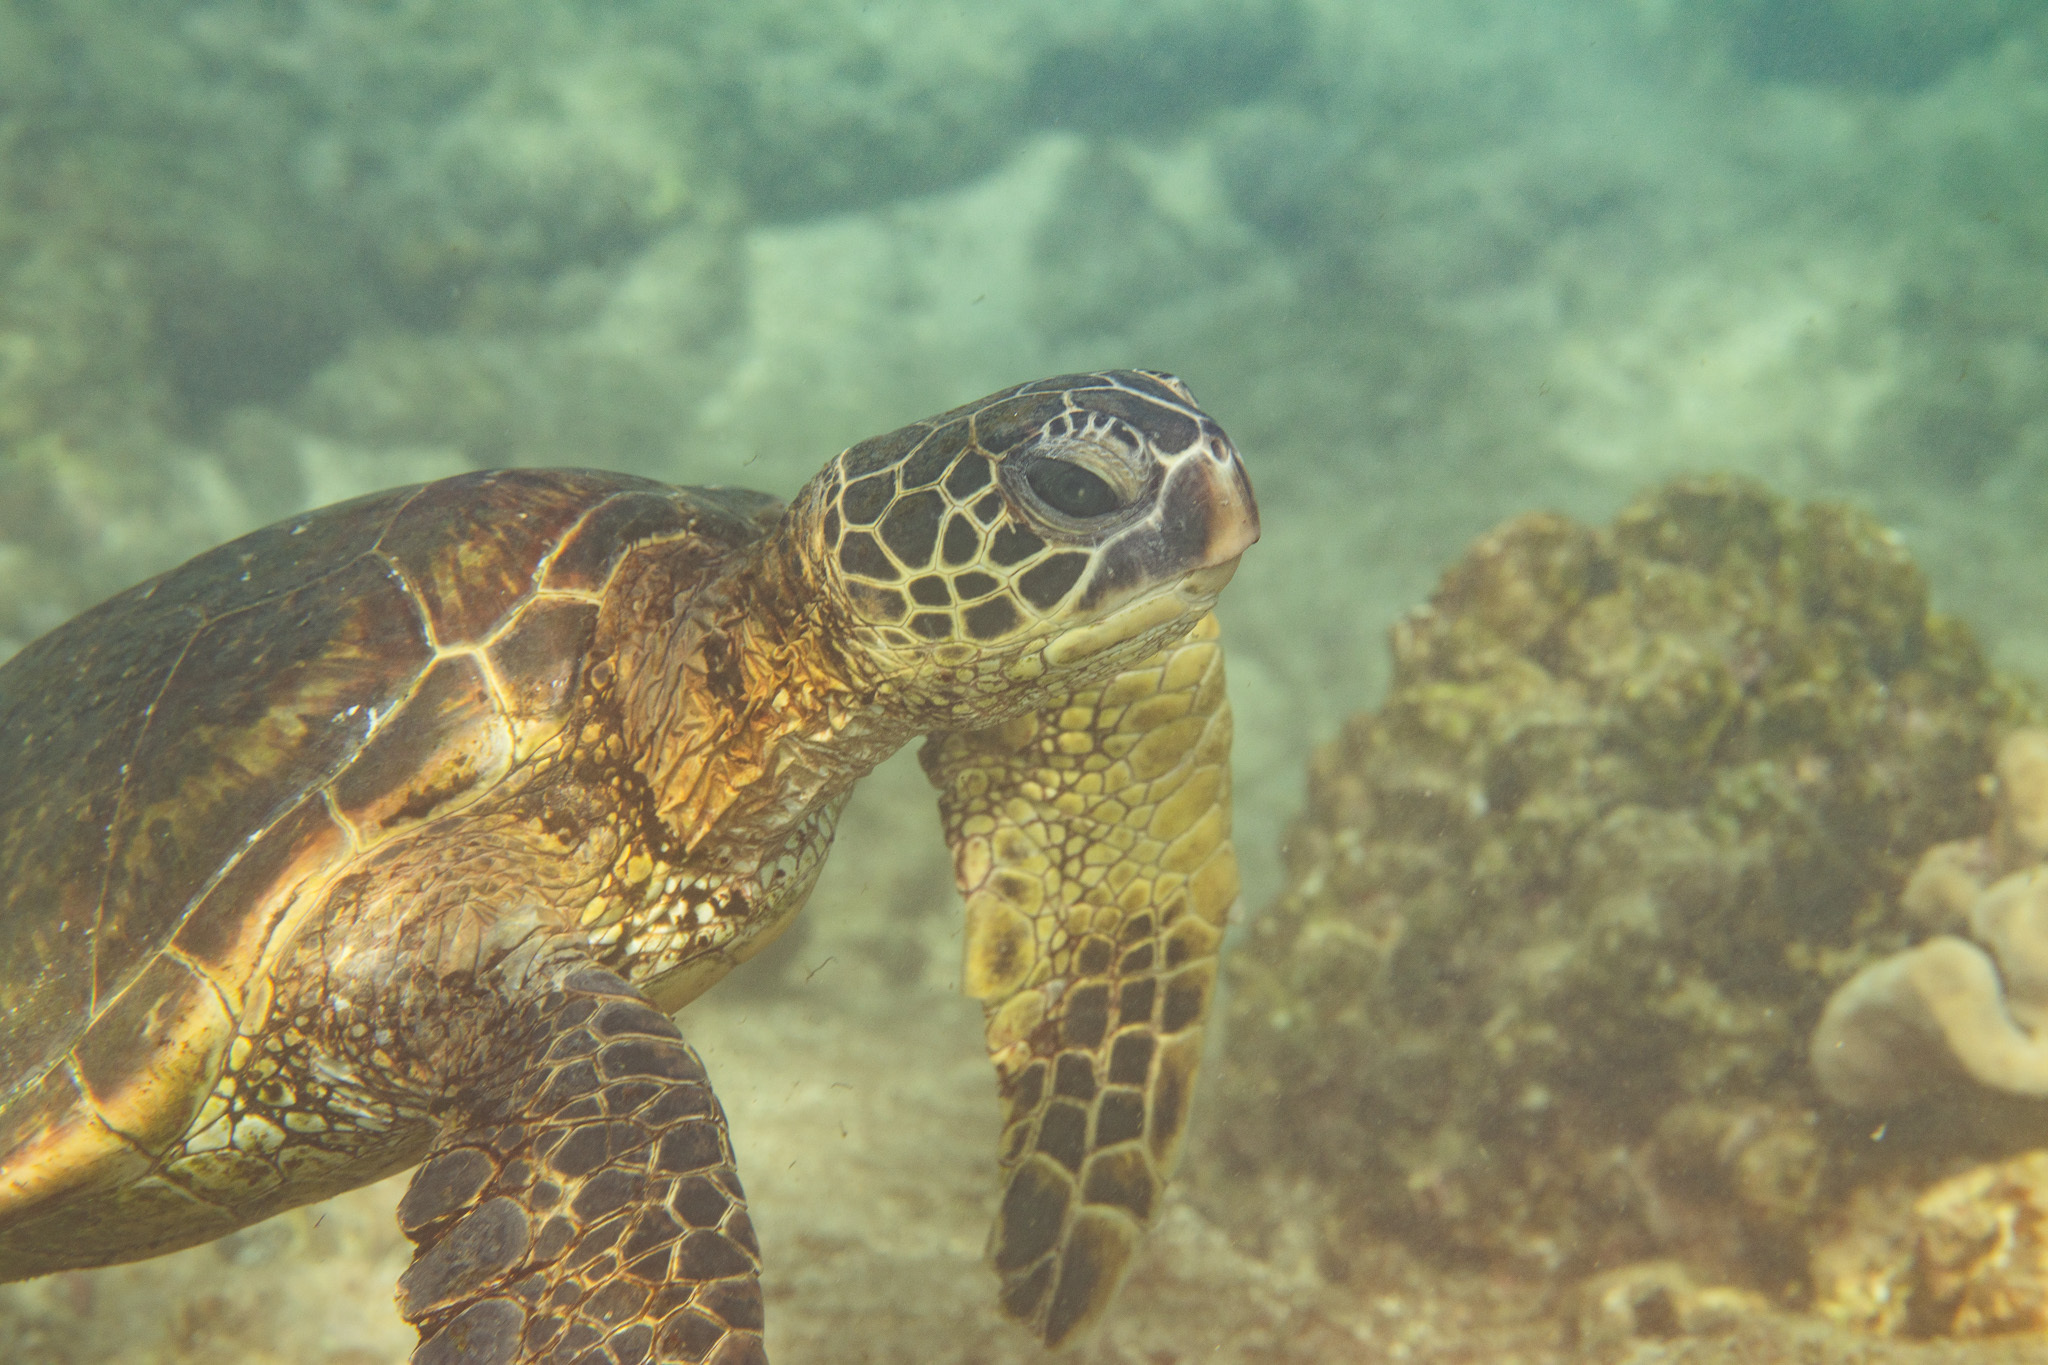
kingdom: Animalia
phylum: Chordata
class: Testudines
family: Cheloniidae
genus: Chelonia
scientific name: Chelonia mydas
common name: Green turtle
